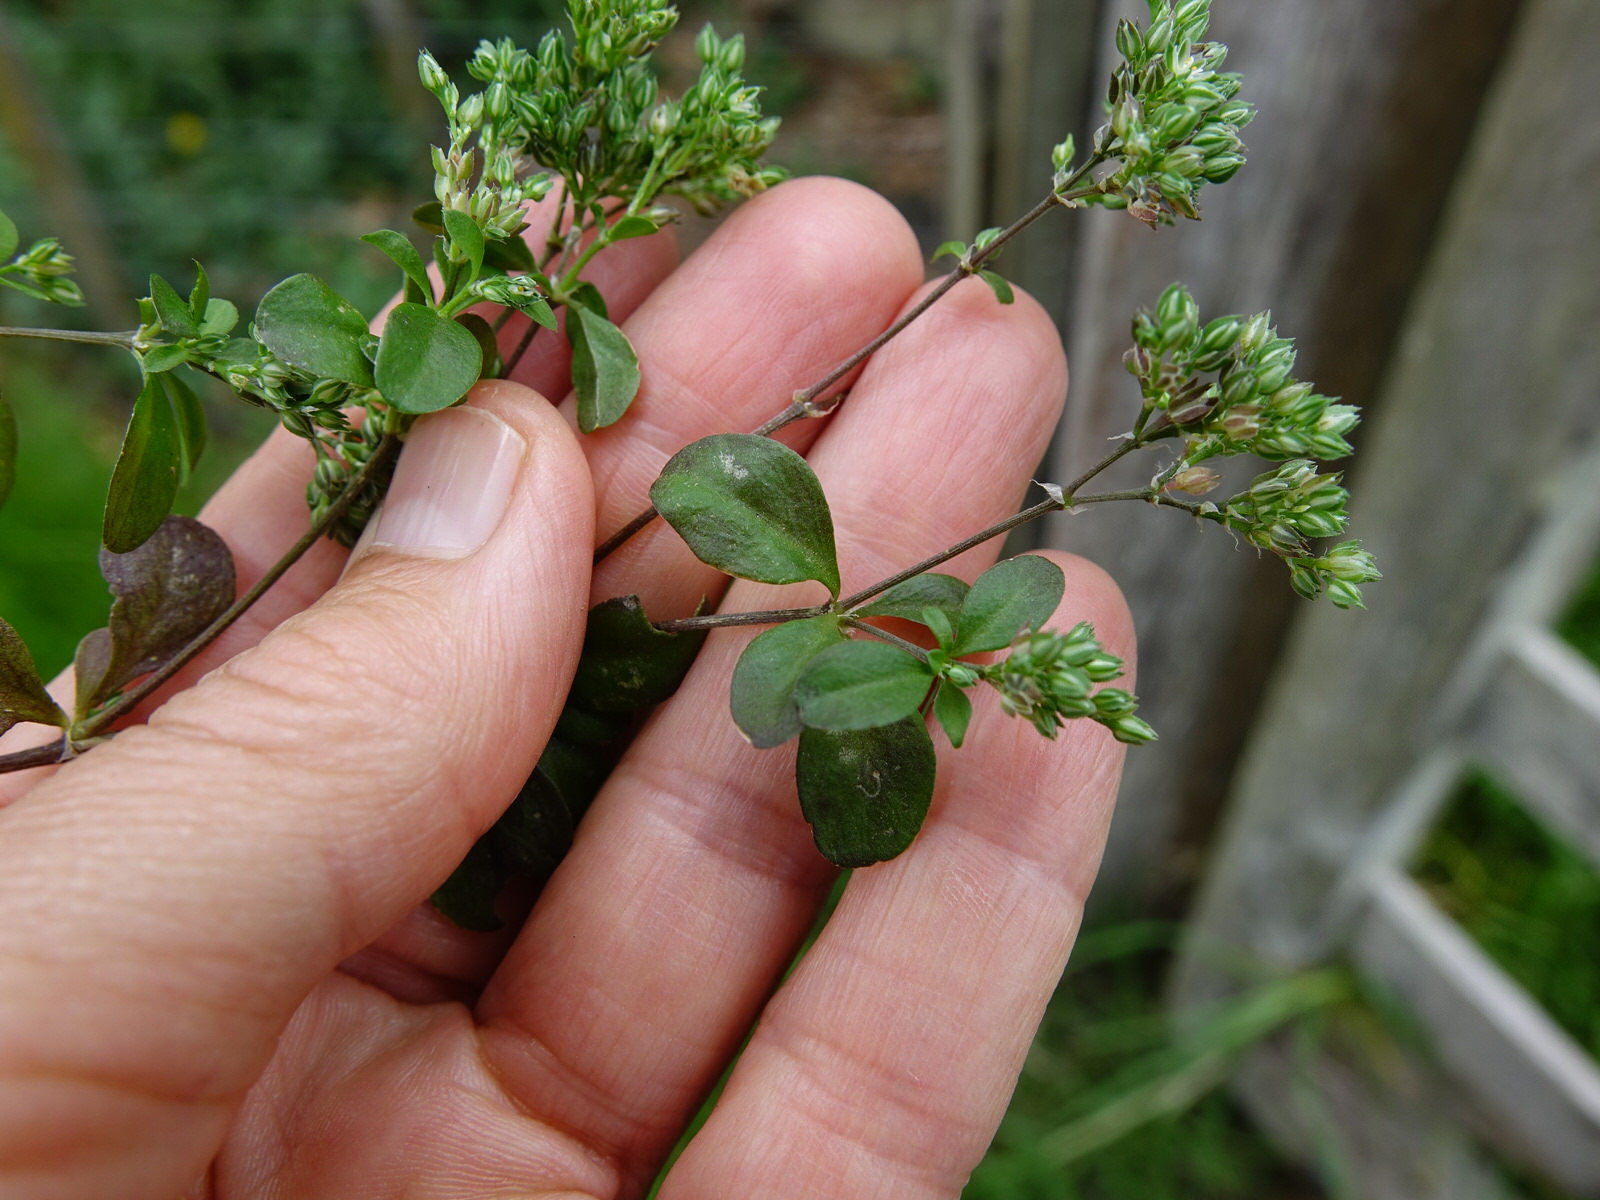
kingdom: Plantae
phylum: Tracheophyta
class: Magnoliopsida
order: Caryophyllales
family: Caryophyllaceae
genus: Polycarpon
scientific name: Polycarpon tetraphyllum
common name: Four-leaved all-seed
